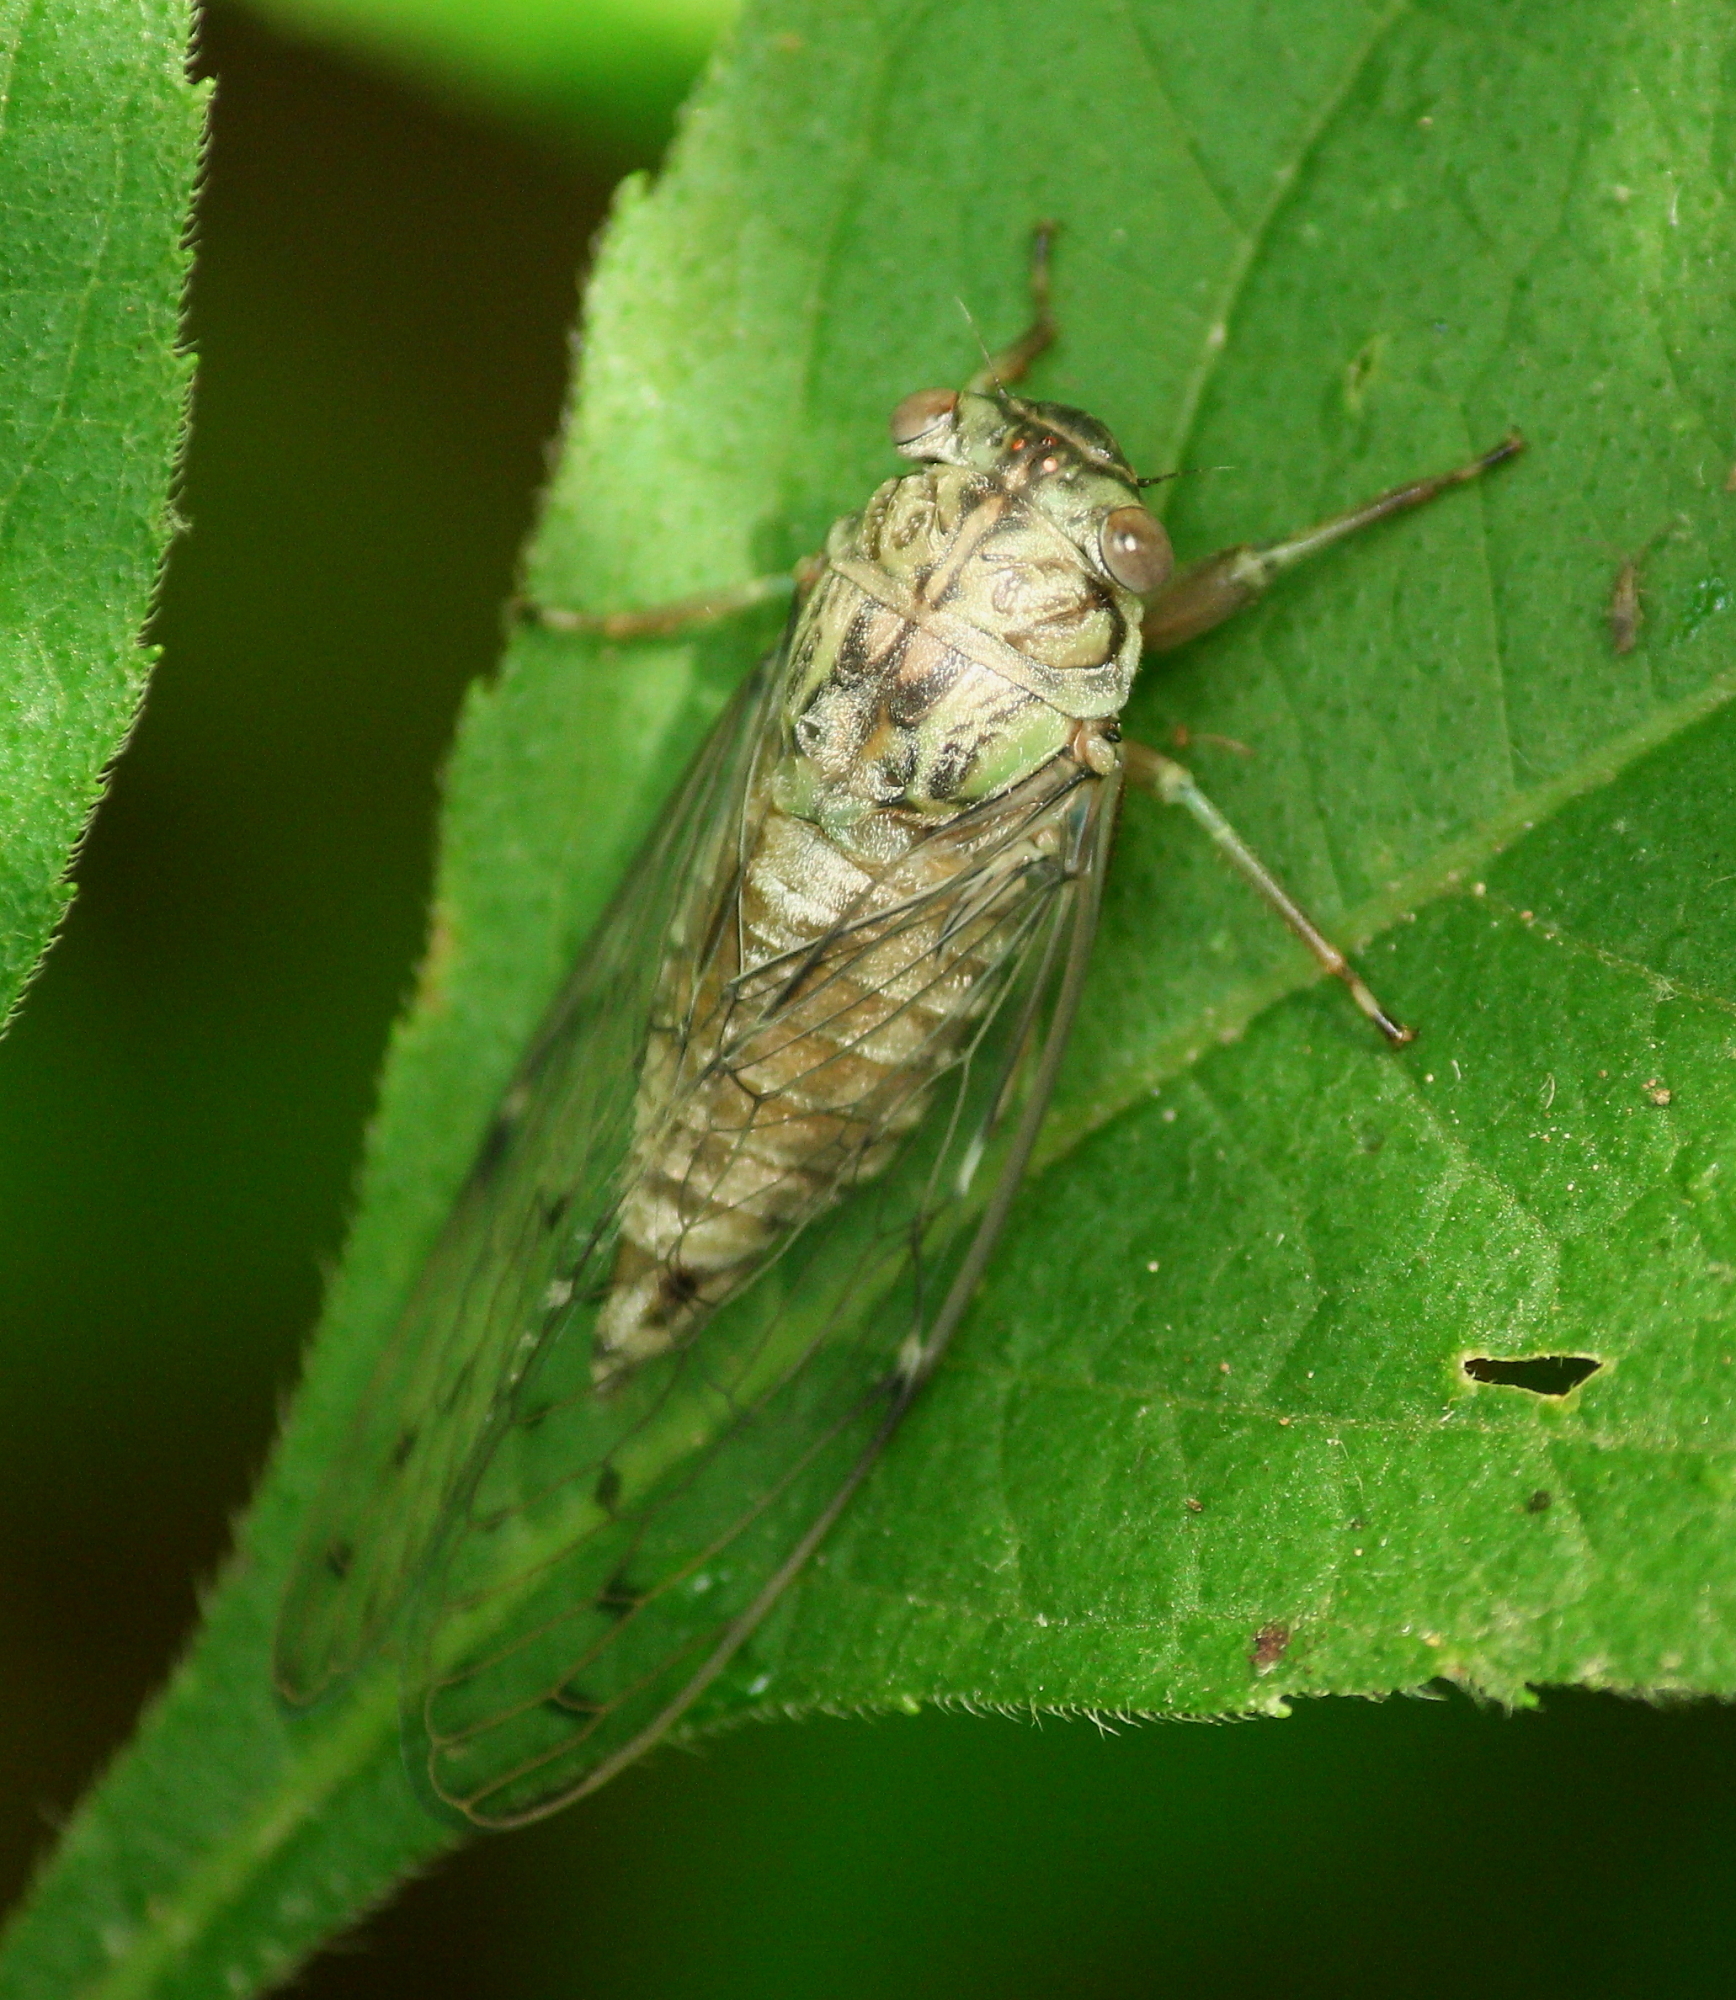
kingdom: Animalia
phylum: Arthropoda
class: Insecta
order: Hemiptera
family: Cicadidae
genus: Neocicada
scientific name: Neocicada hieroglyphica
